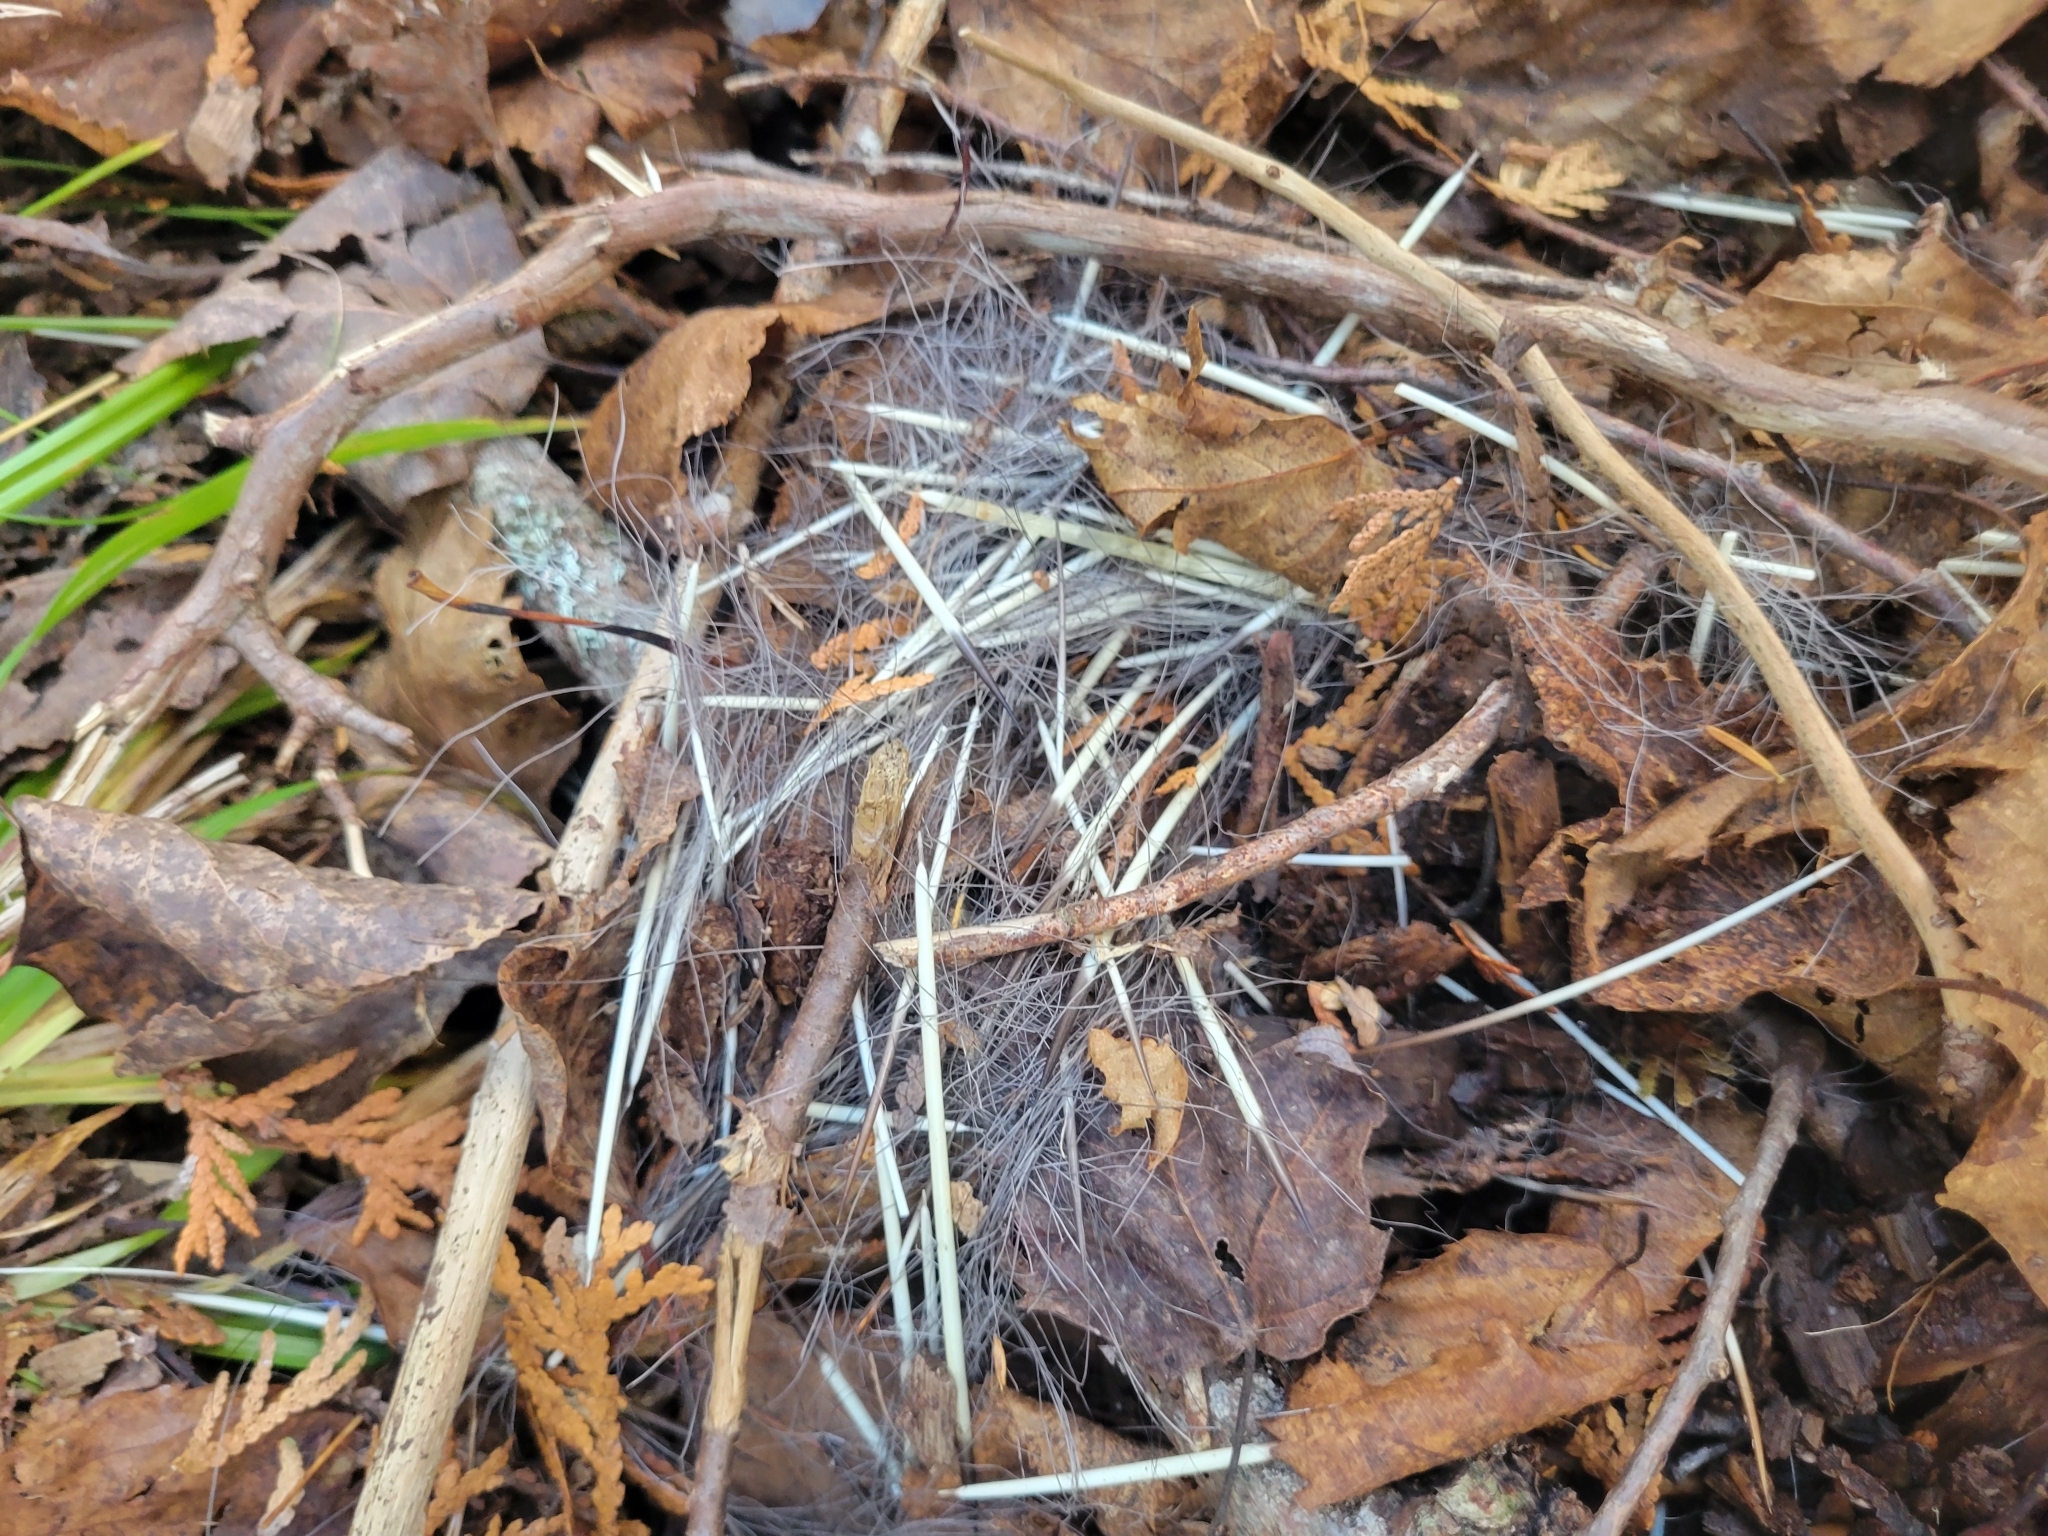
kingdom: Animalia
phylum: Chordata
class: Mammalia
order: Rodentia
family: Erethizontidae
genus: Erethizon
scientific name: Erethizon dorsatus
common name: North american porcupine
